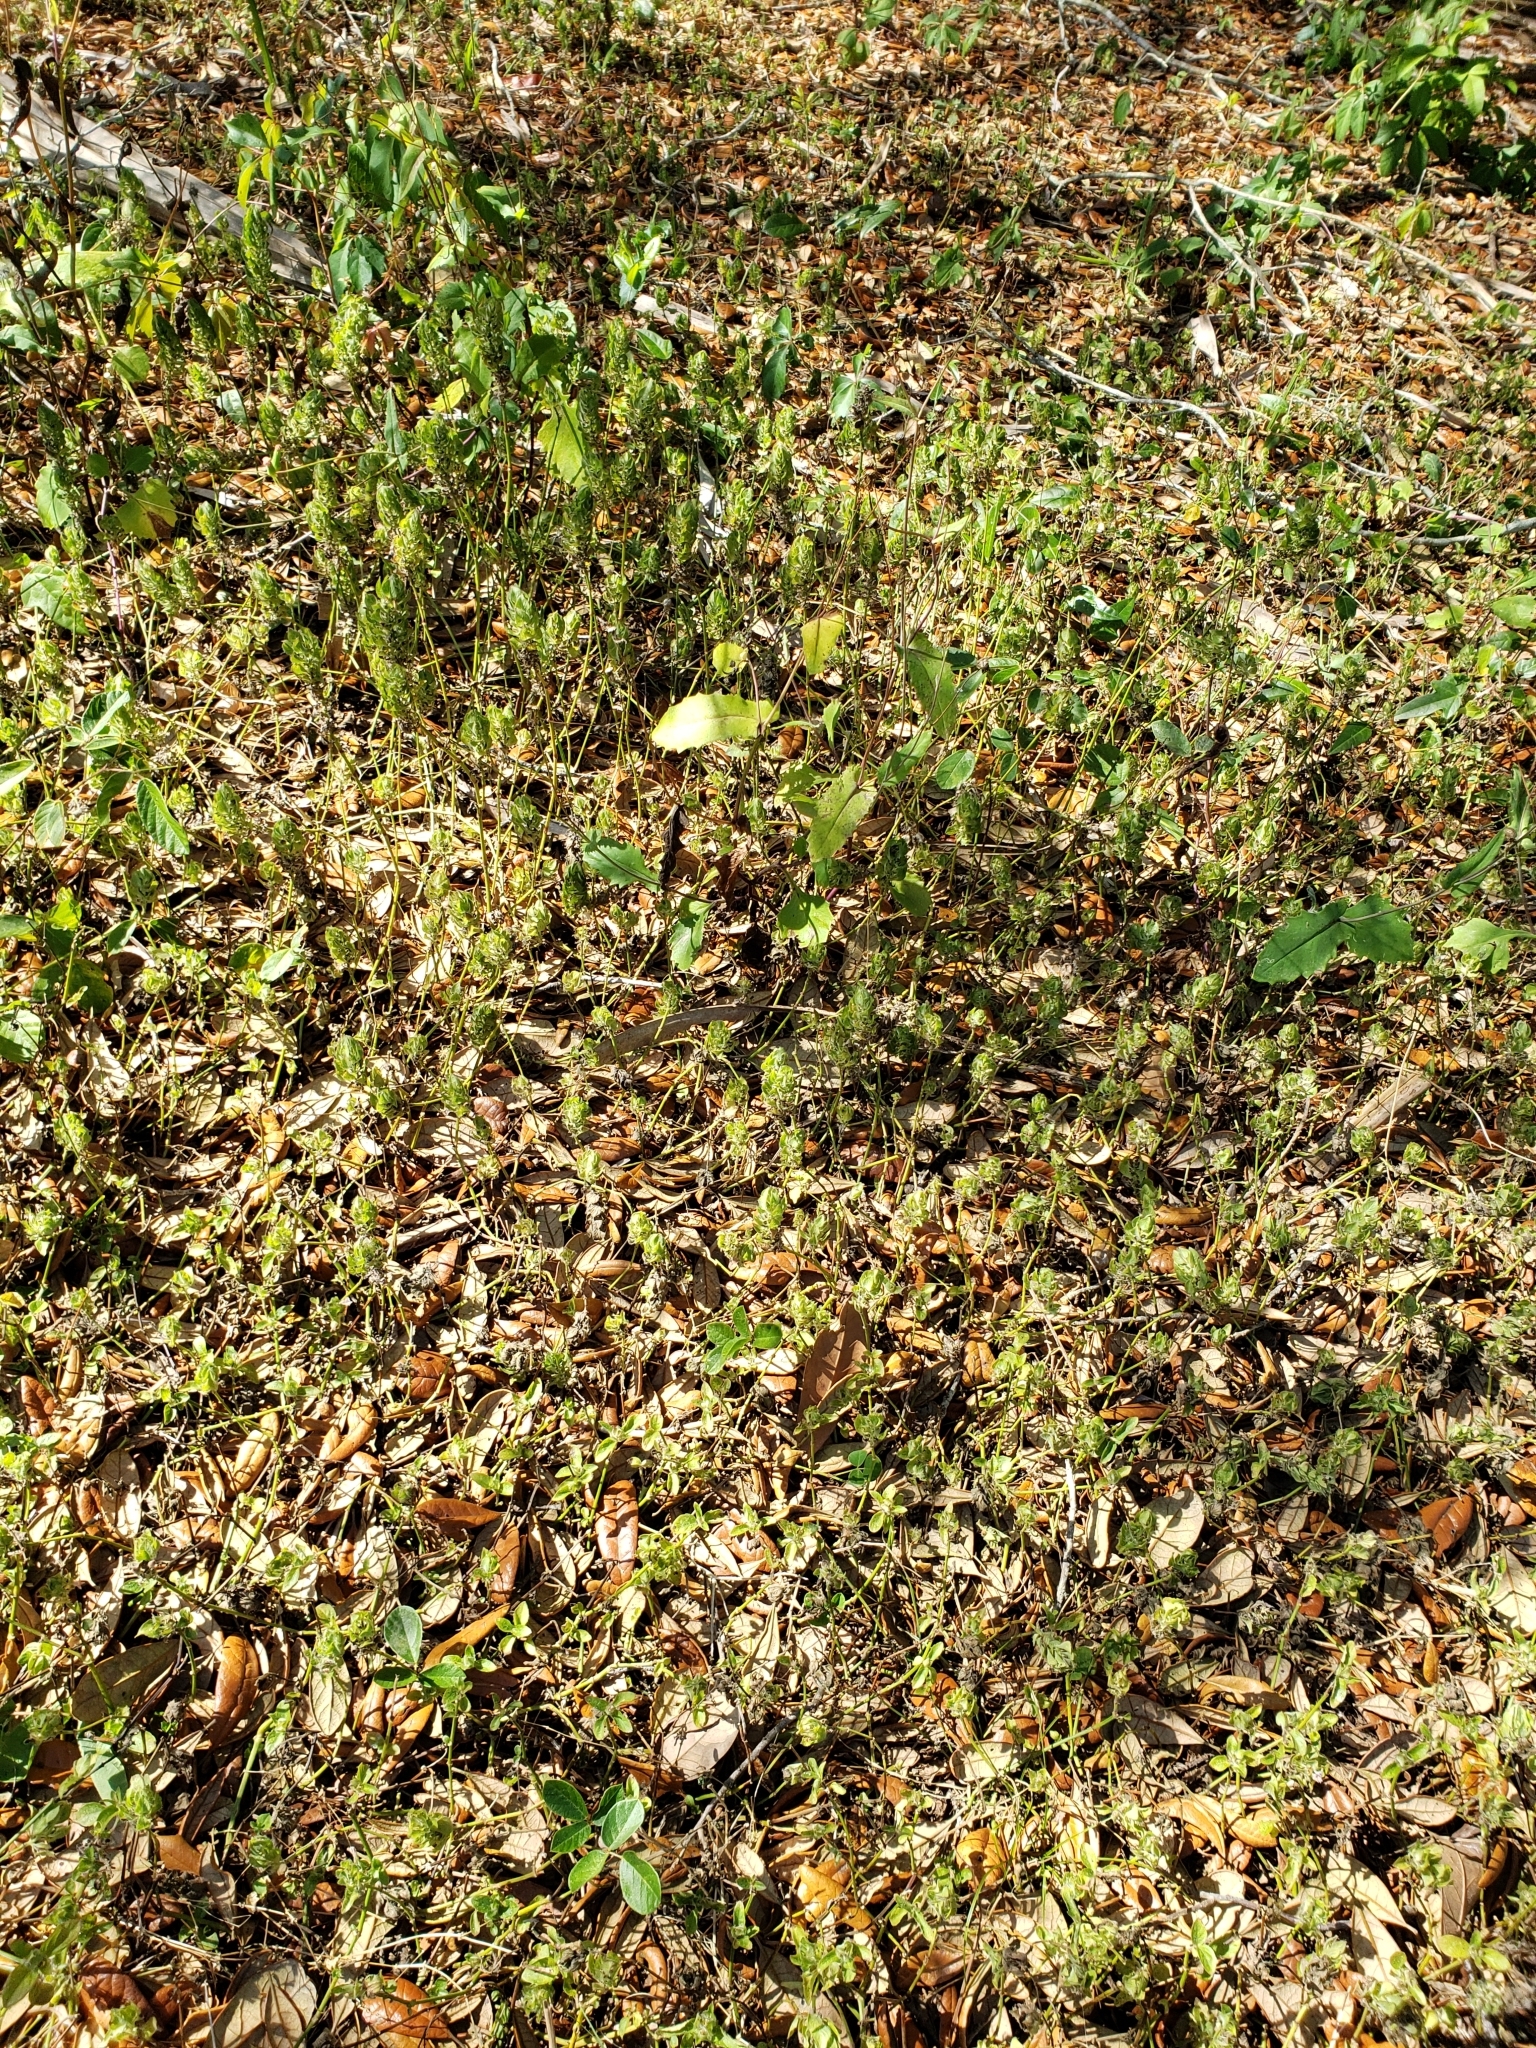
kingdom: Plantae
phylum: Tracheophyta
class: Magnoliopsida
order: Lamiales
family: Acanthaceae
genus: Ruellia
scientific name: Ruellia blechum
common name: Browne's blechum
